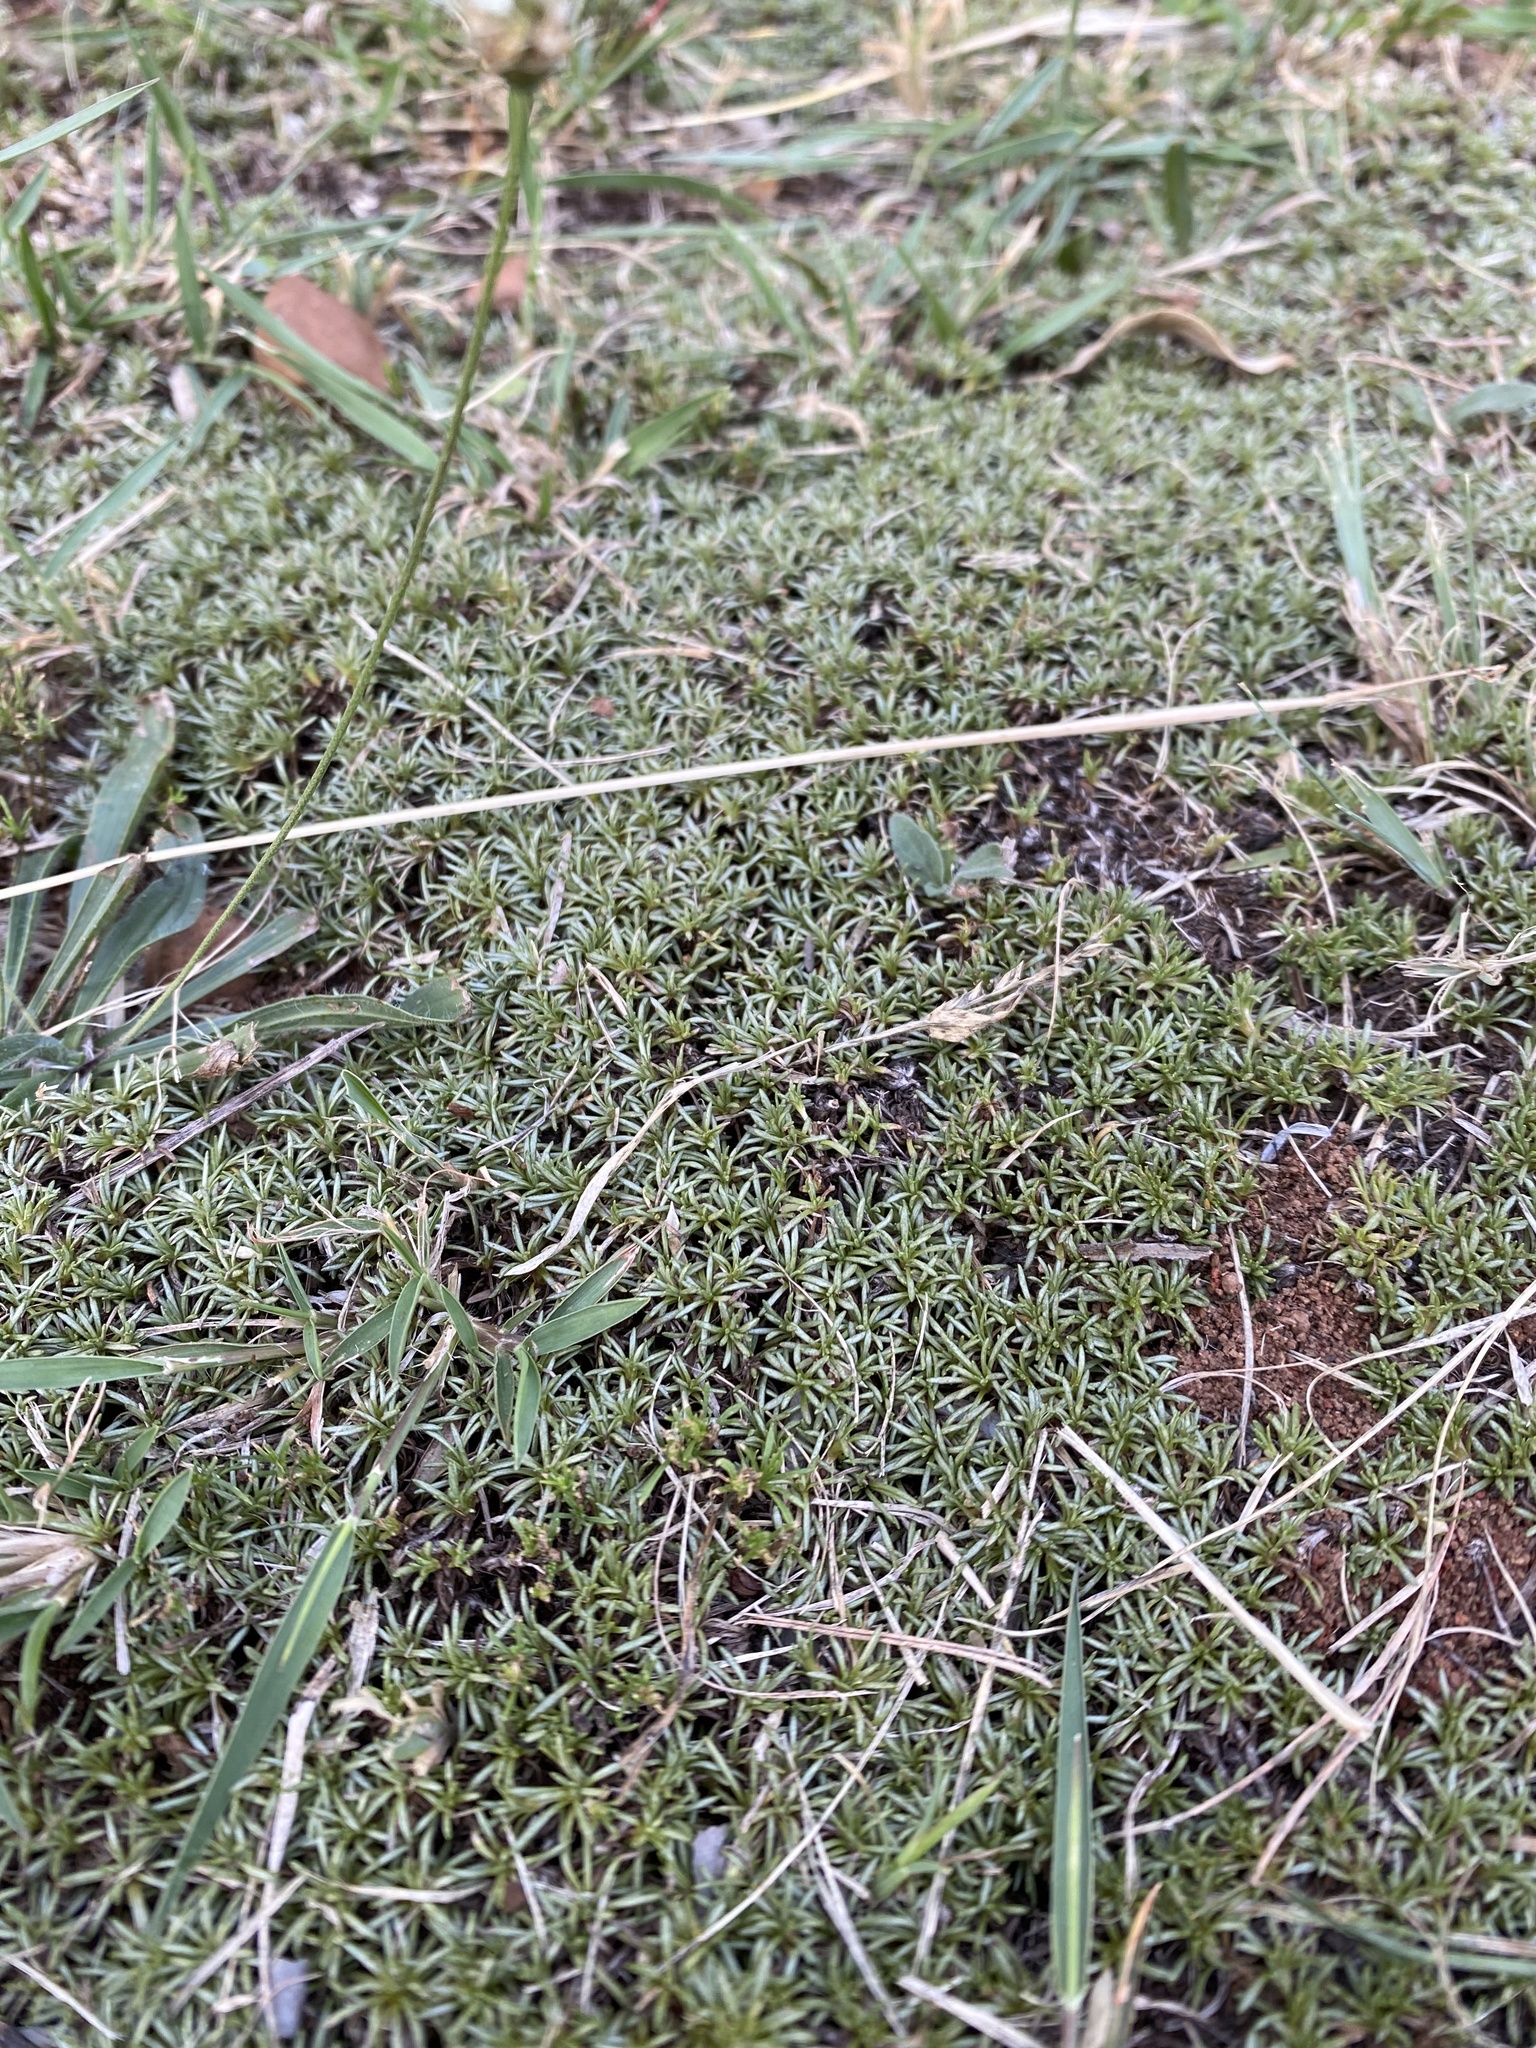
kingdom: Plantae
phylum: Tracheophyta
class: Magnoliopsida
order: Asterales
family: Asteraceae
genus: Helichrysum
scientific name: Helichrysum caespititium
